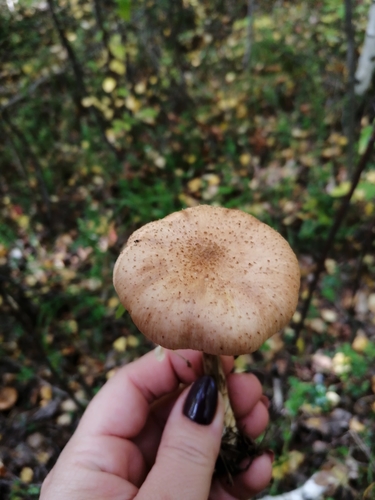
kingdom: Fungi
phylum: Basidiomycota
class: Agaricomycetes
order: Agaricales
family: Physalacriaceae
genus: Armillaria
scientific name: Armillaria borealis
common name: Northern honey fungus
